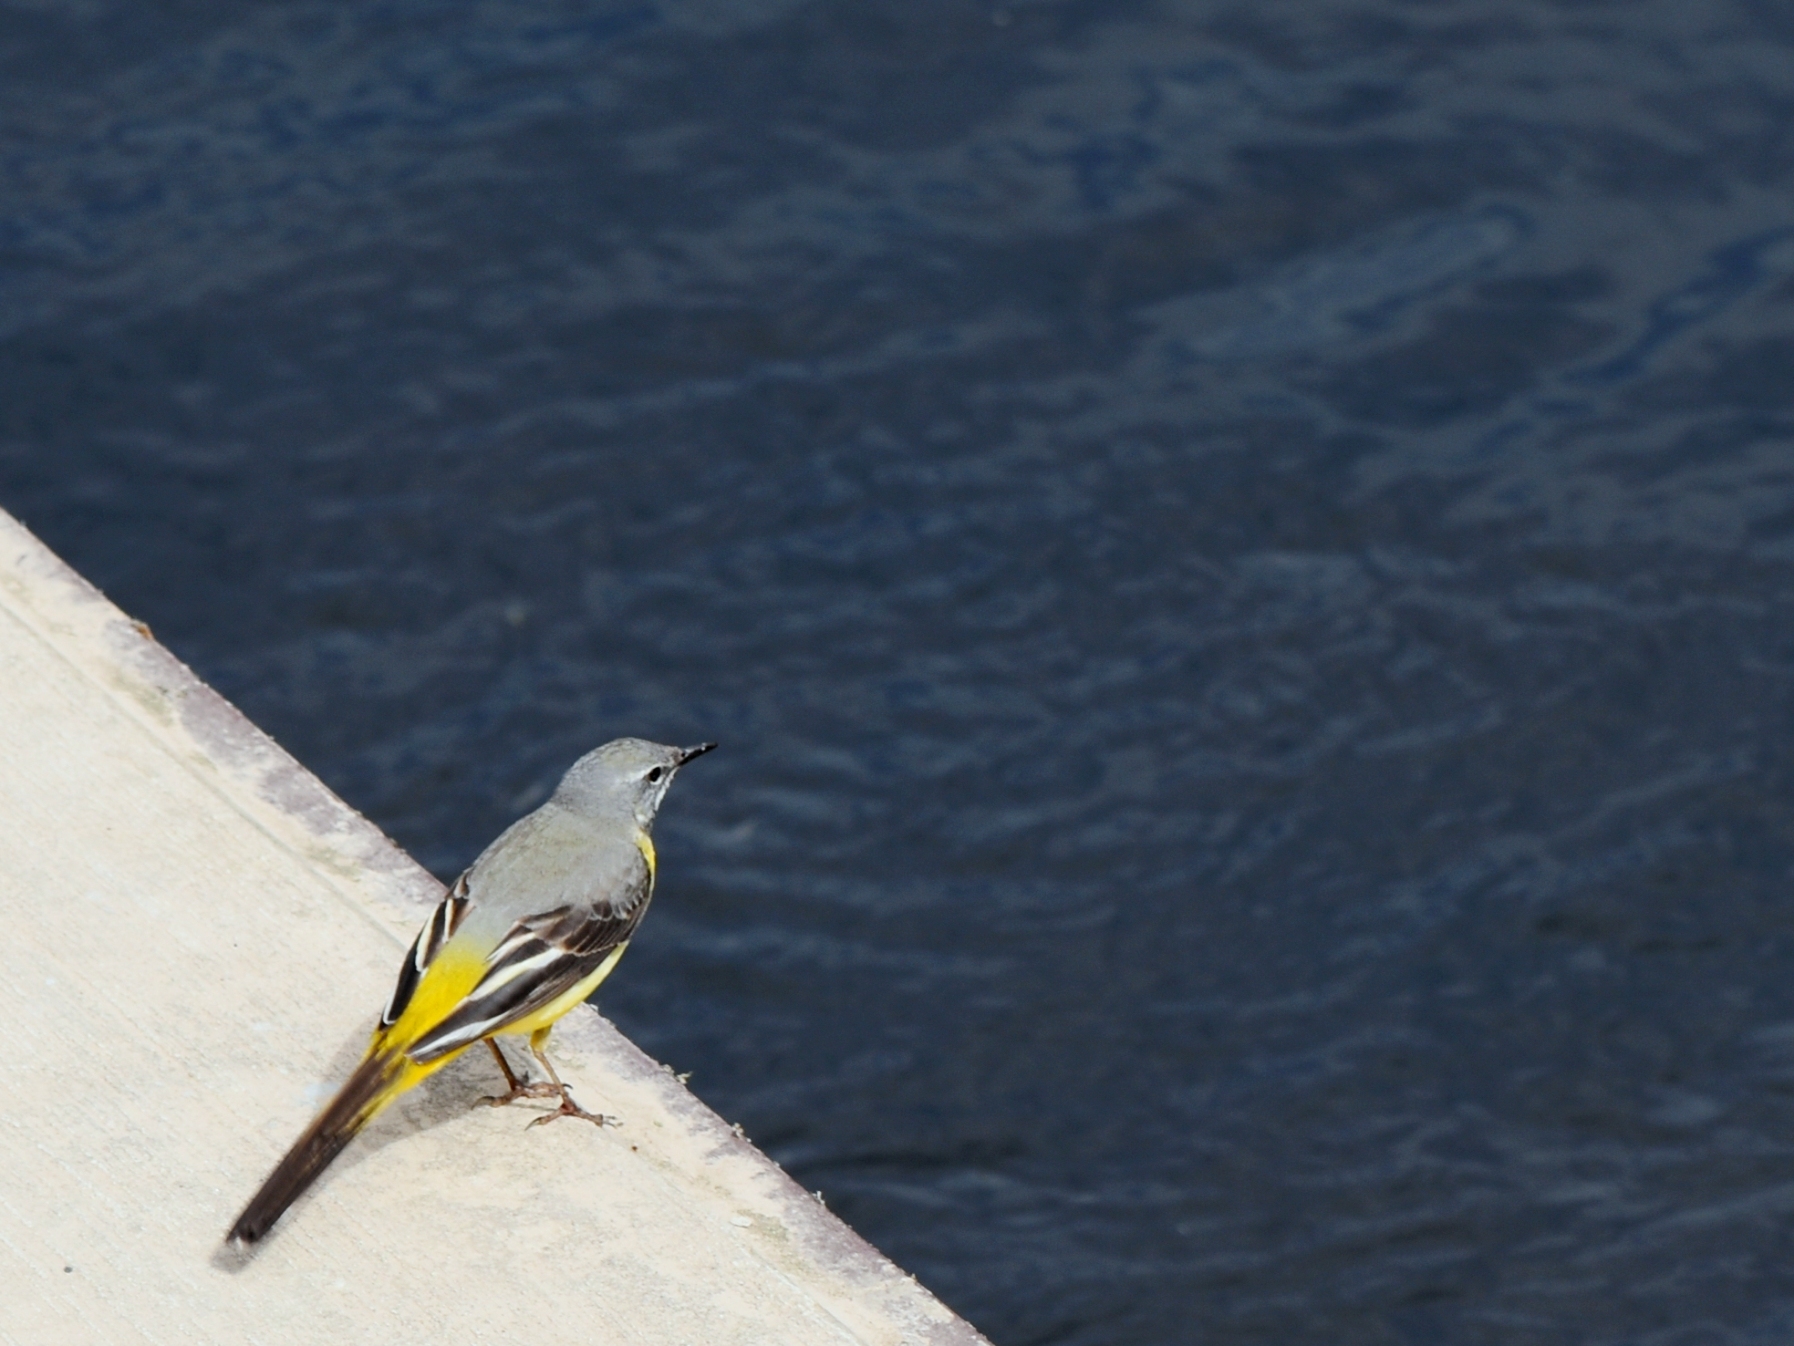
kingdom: Animalia
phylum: Chordata
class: Aves
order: Passeriformes
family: Motacillidae
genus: Motacilla
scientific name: Motacilla cinerea
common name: Grey wagtail
